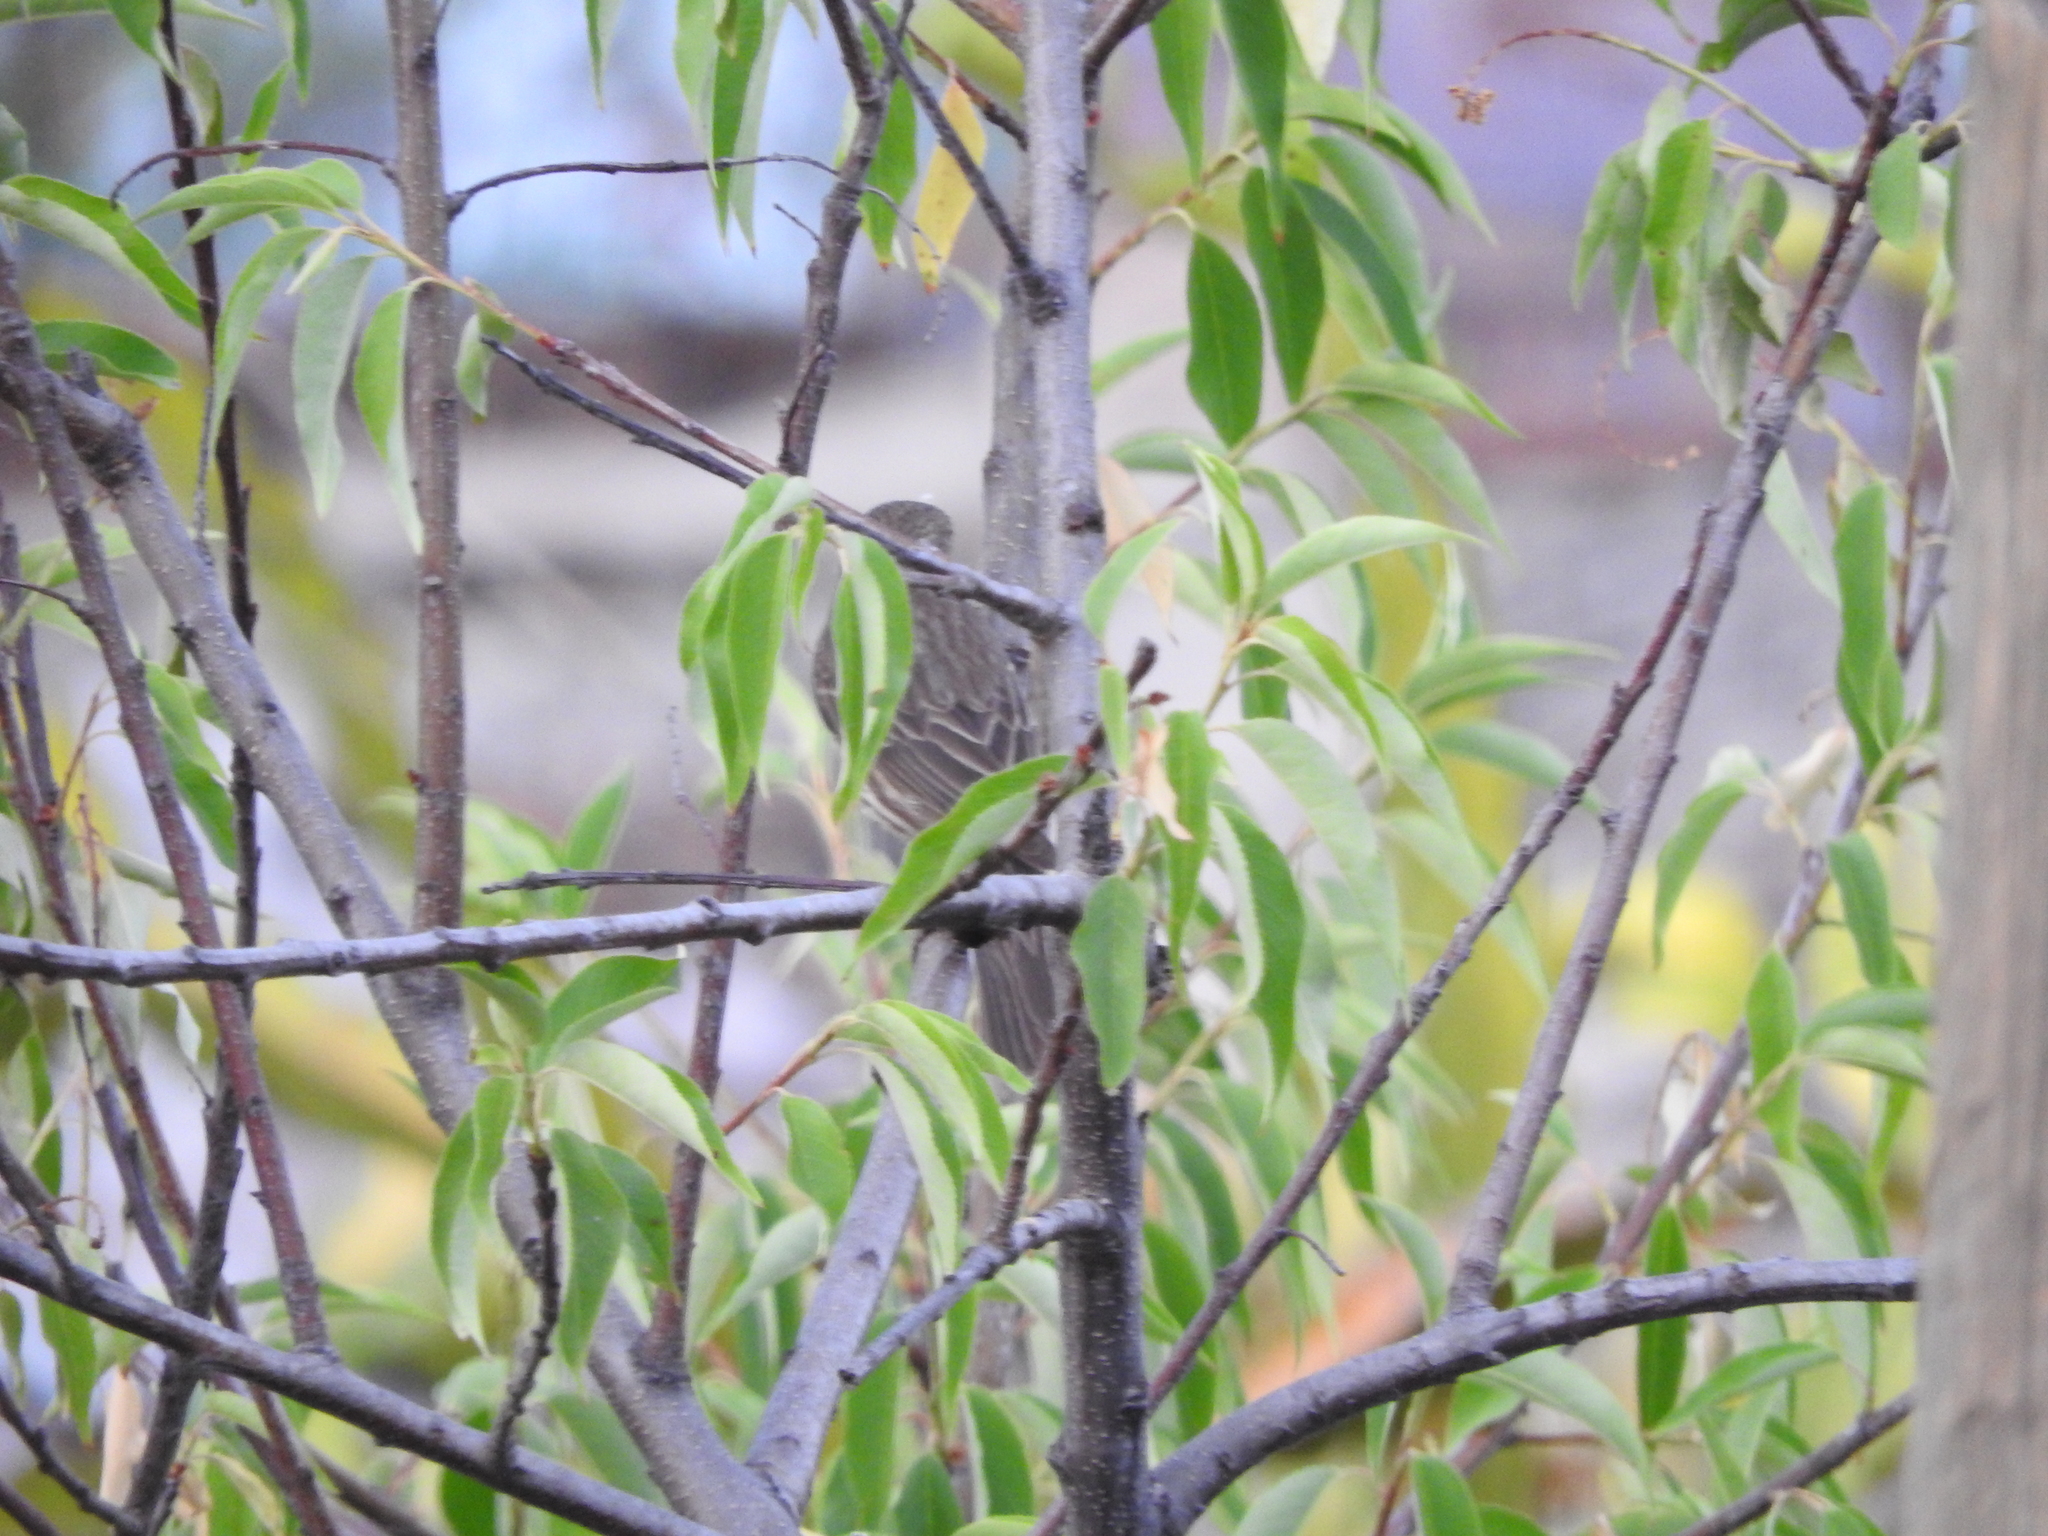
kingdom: Animalia
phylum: Chordata
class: Aves
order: Passeriformes
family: Fringillidae
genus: Spinus
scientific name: Spinus psaltria
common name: Lesser goldfinch
